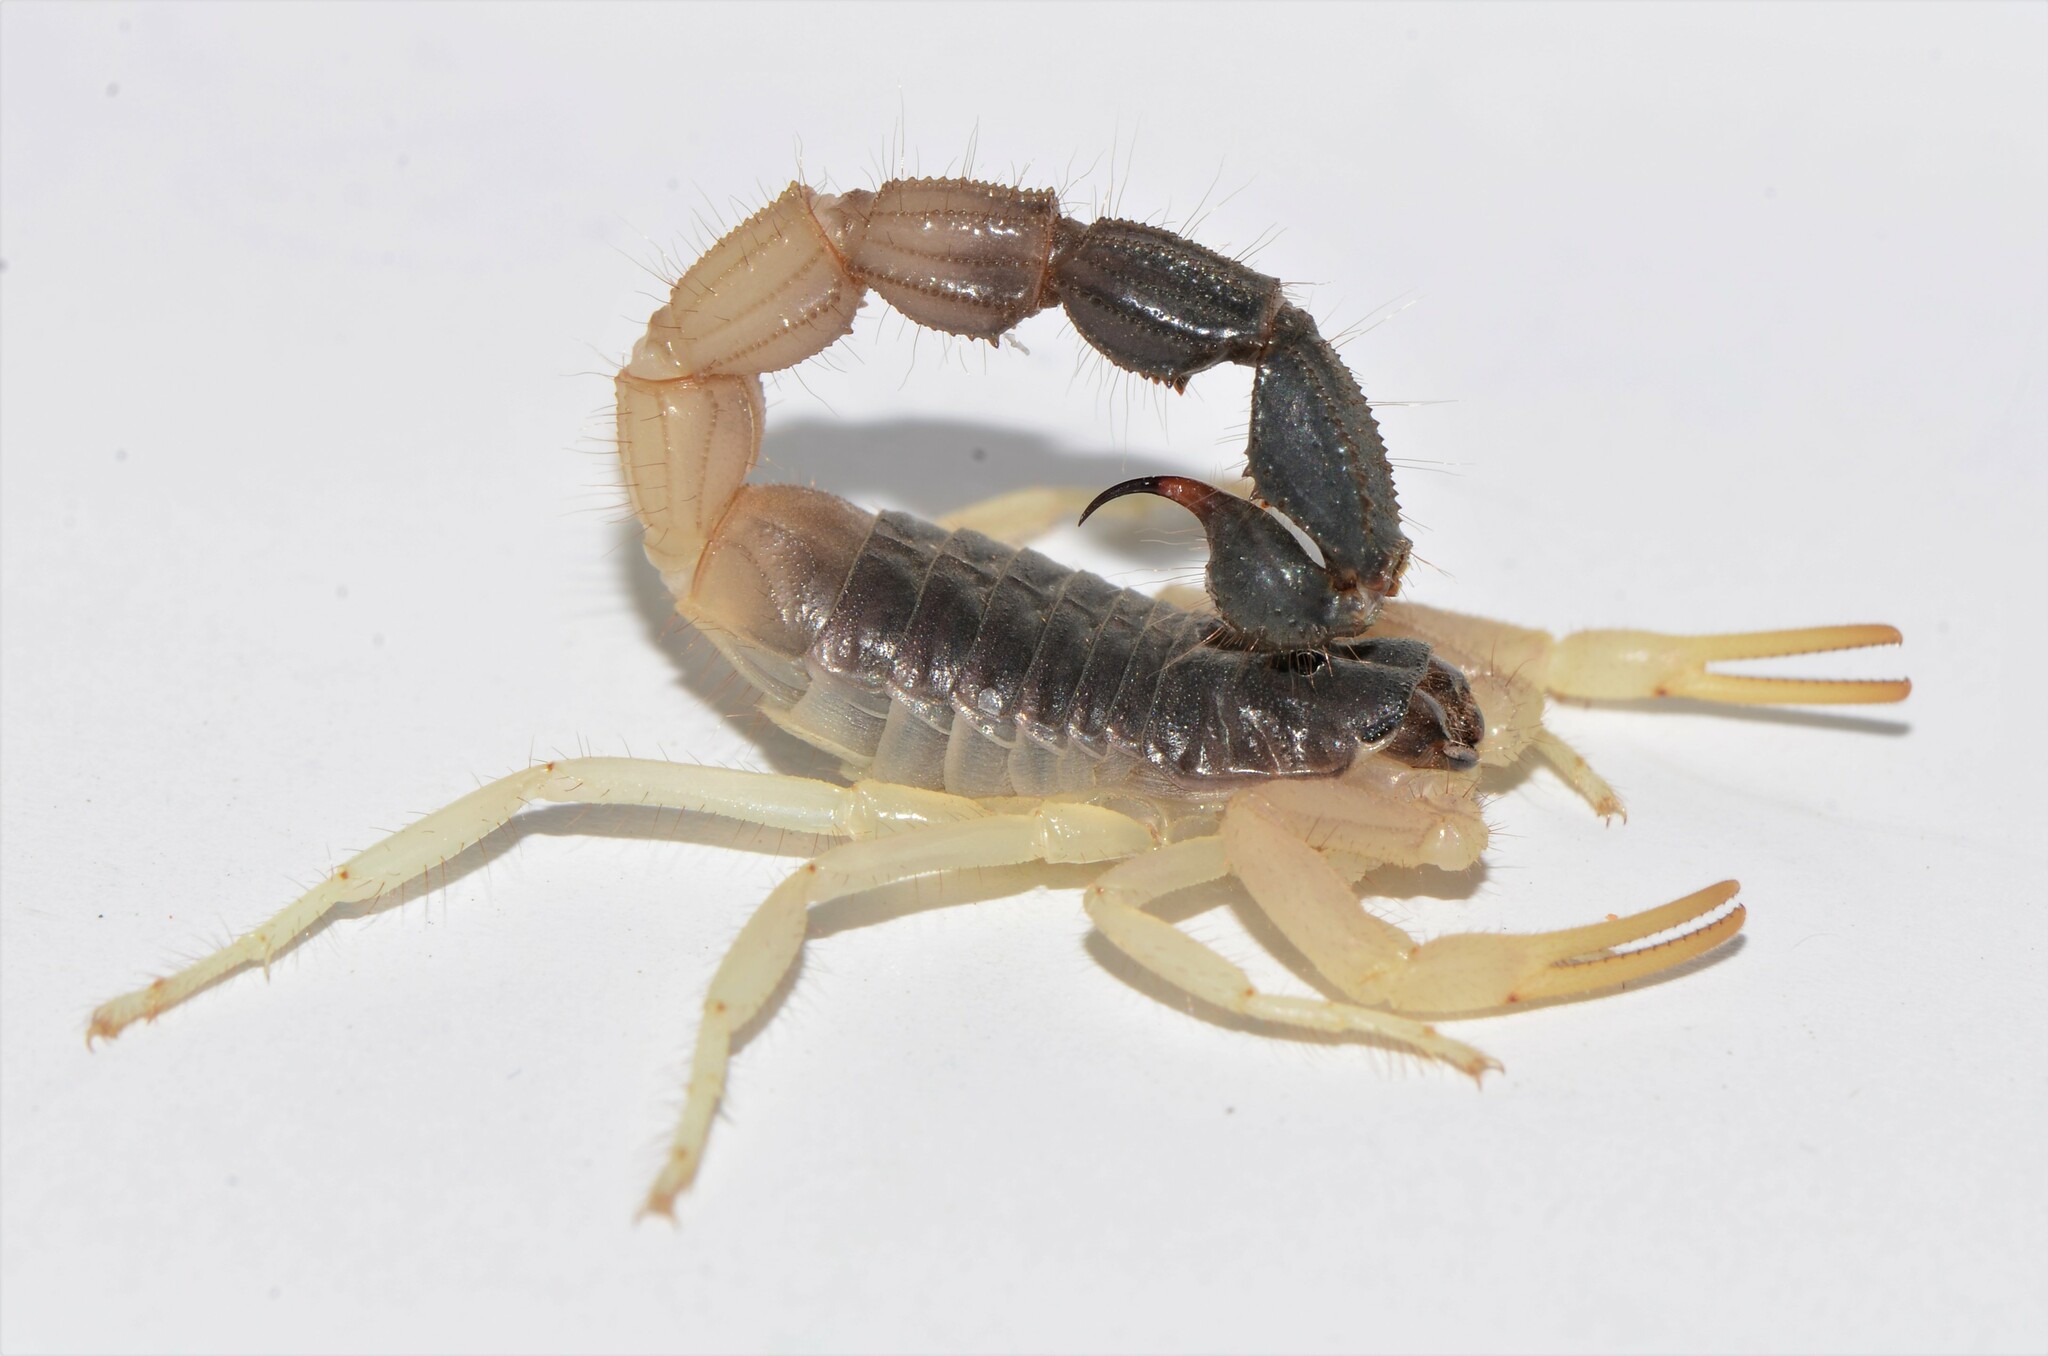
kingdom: Animalia
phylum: Arthropoda
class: Arachnida
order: Scorpiones
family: Buthidae
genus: Parabuthus
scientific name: Parabuthus schlechteri
